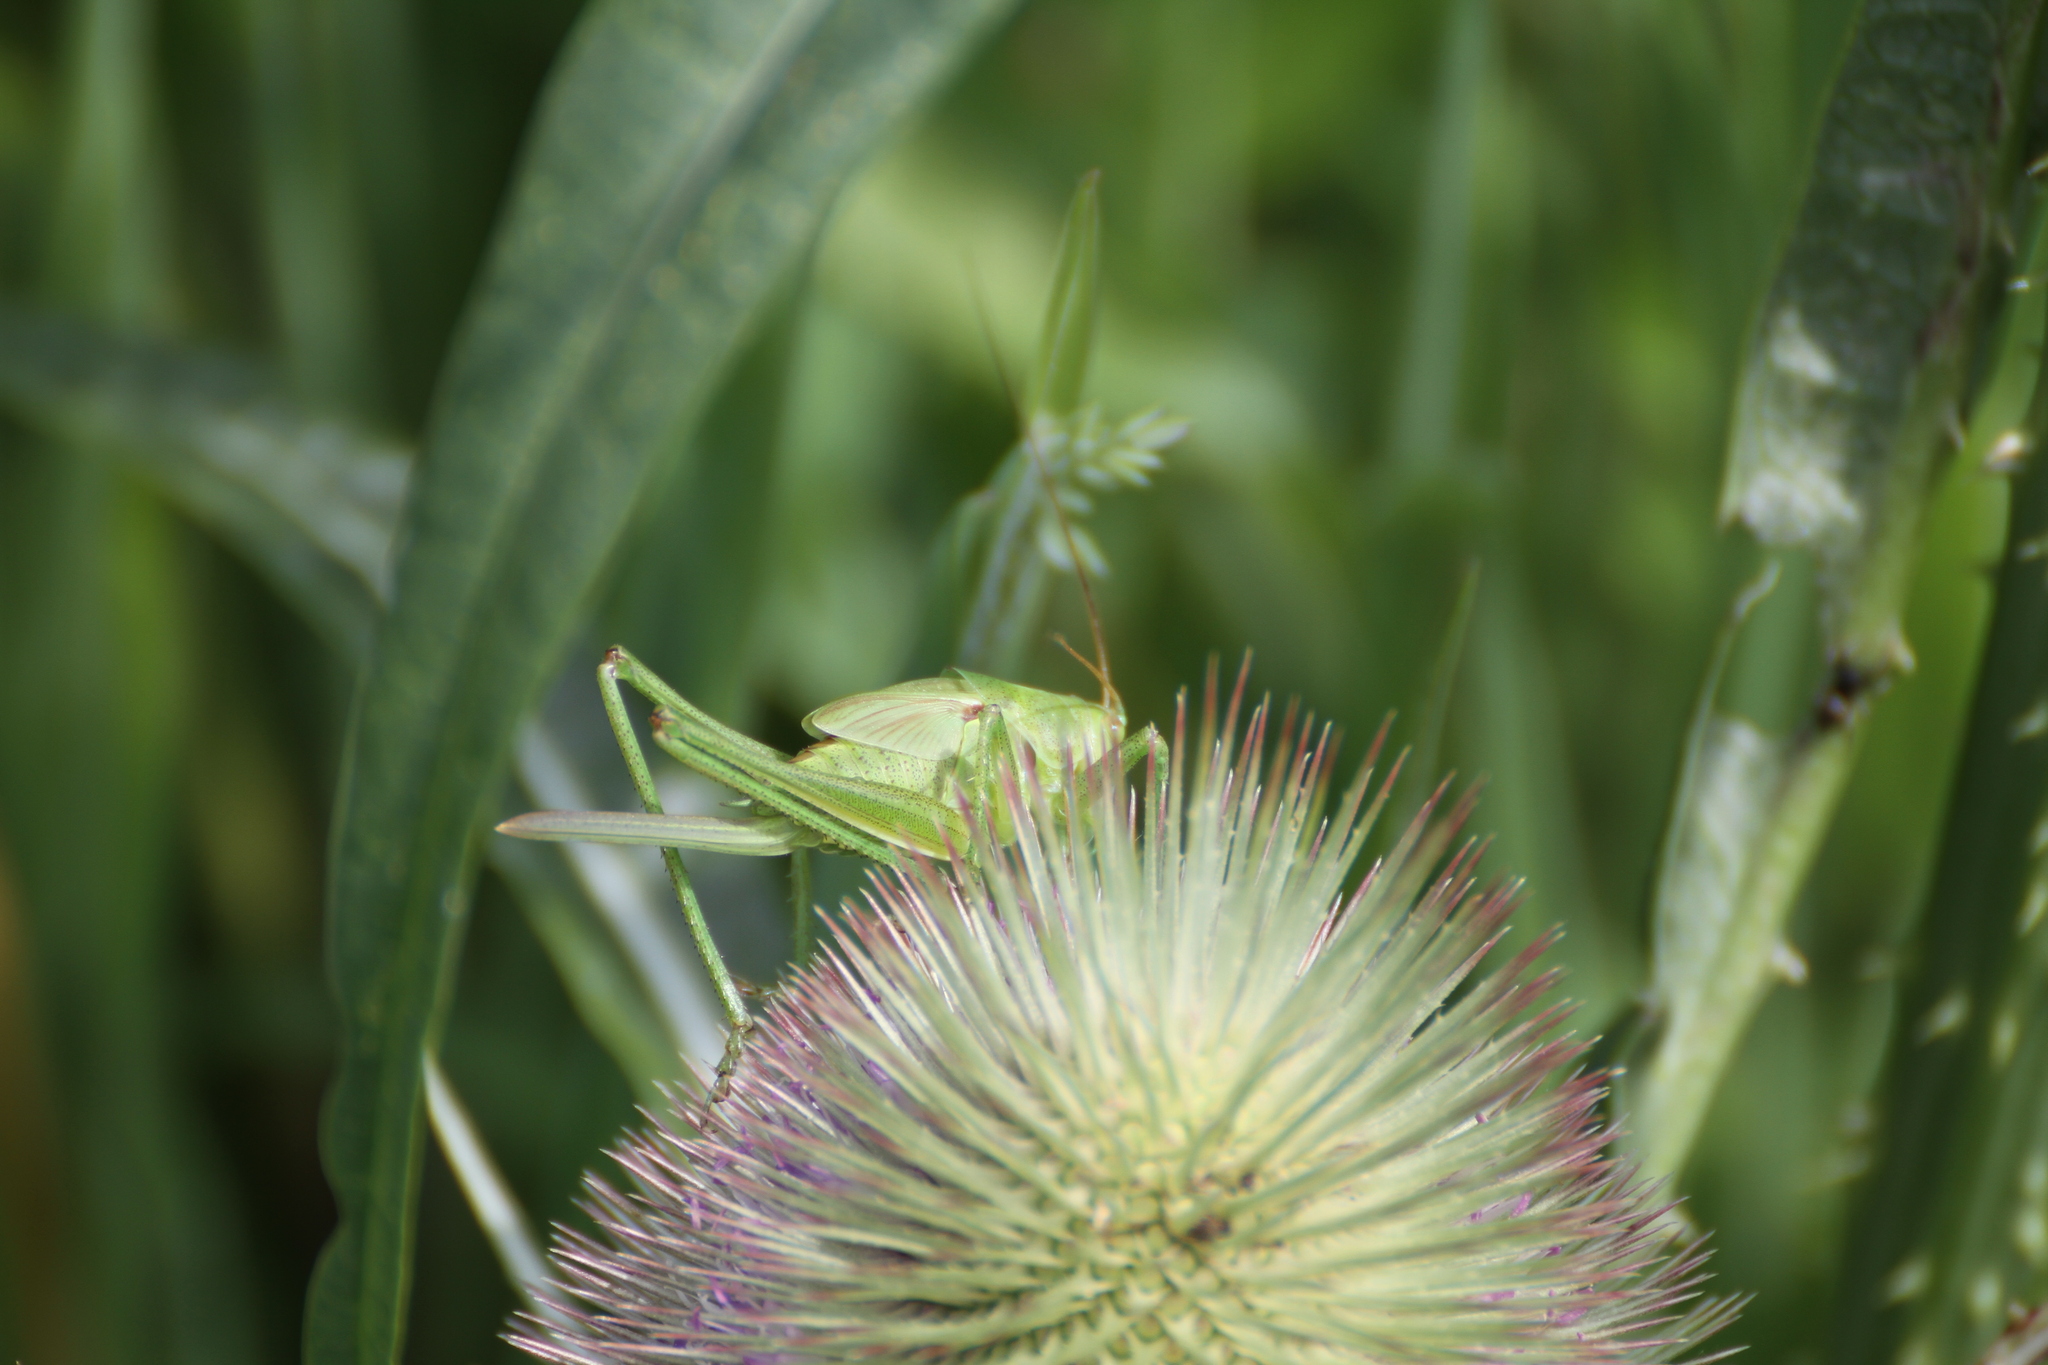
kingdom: Animalia
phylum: Arthropoda
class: Insecta
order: Orthoptera
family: Tettigoniidae
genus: Tettigonia
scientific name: Tettigonia viridissima
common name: Great green bush-cricket
